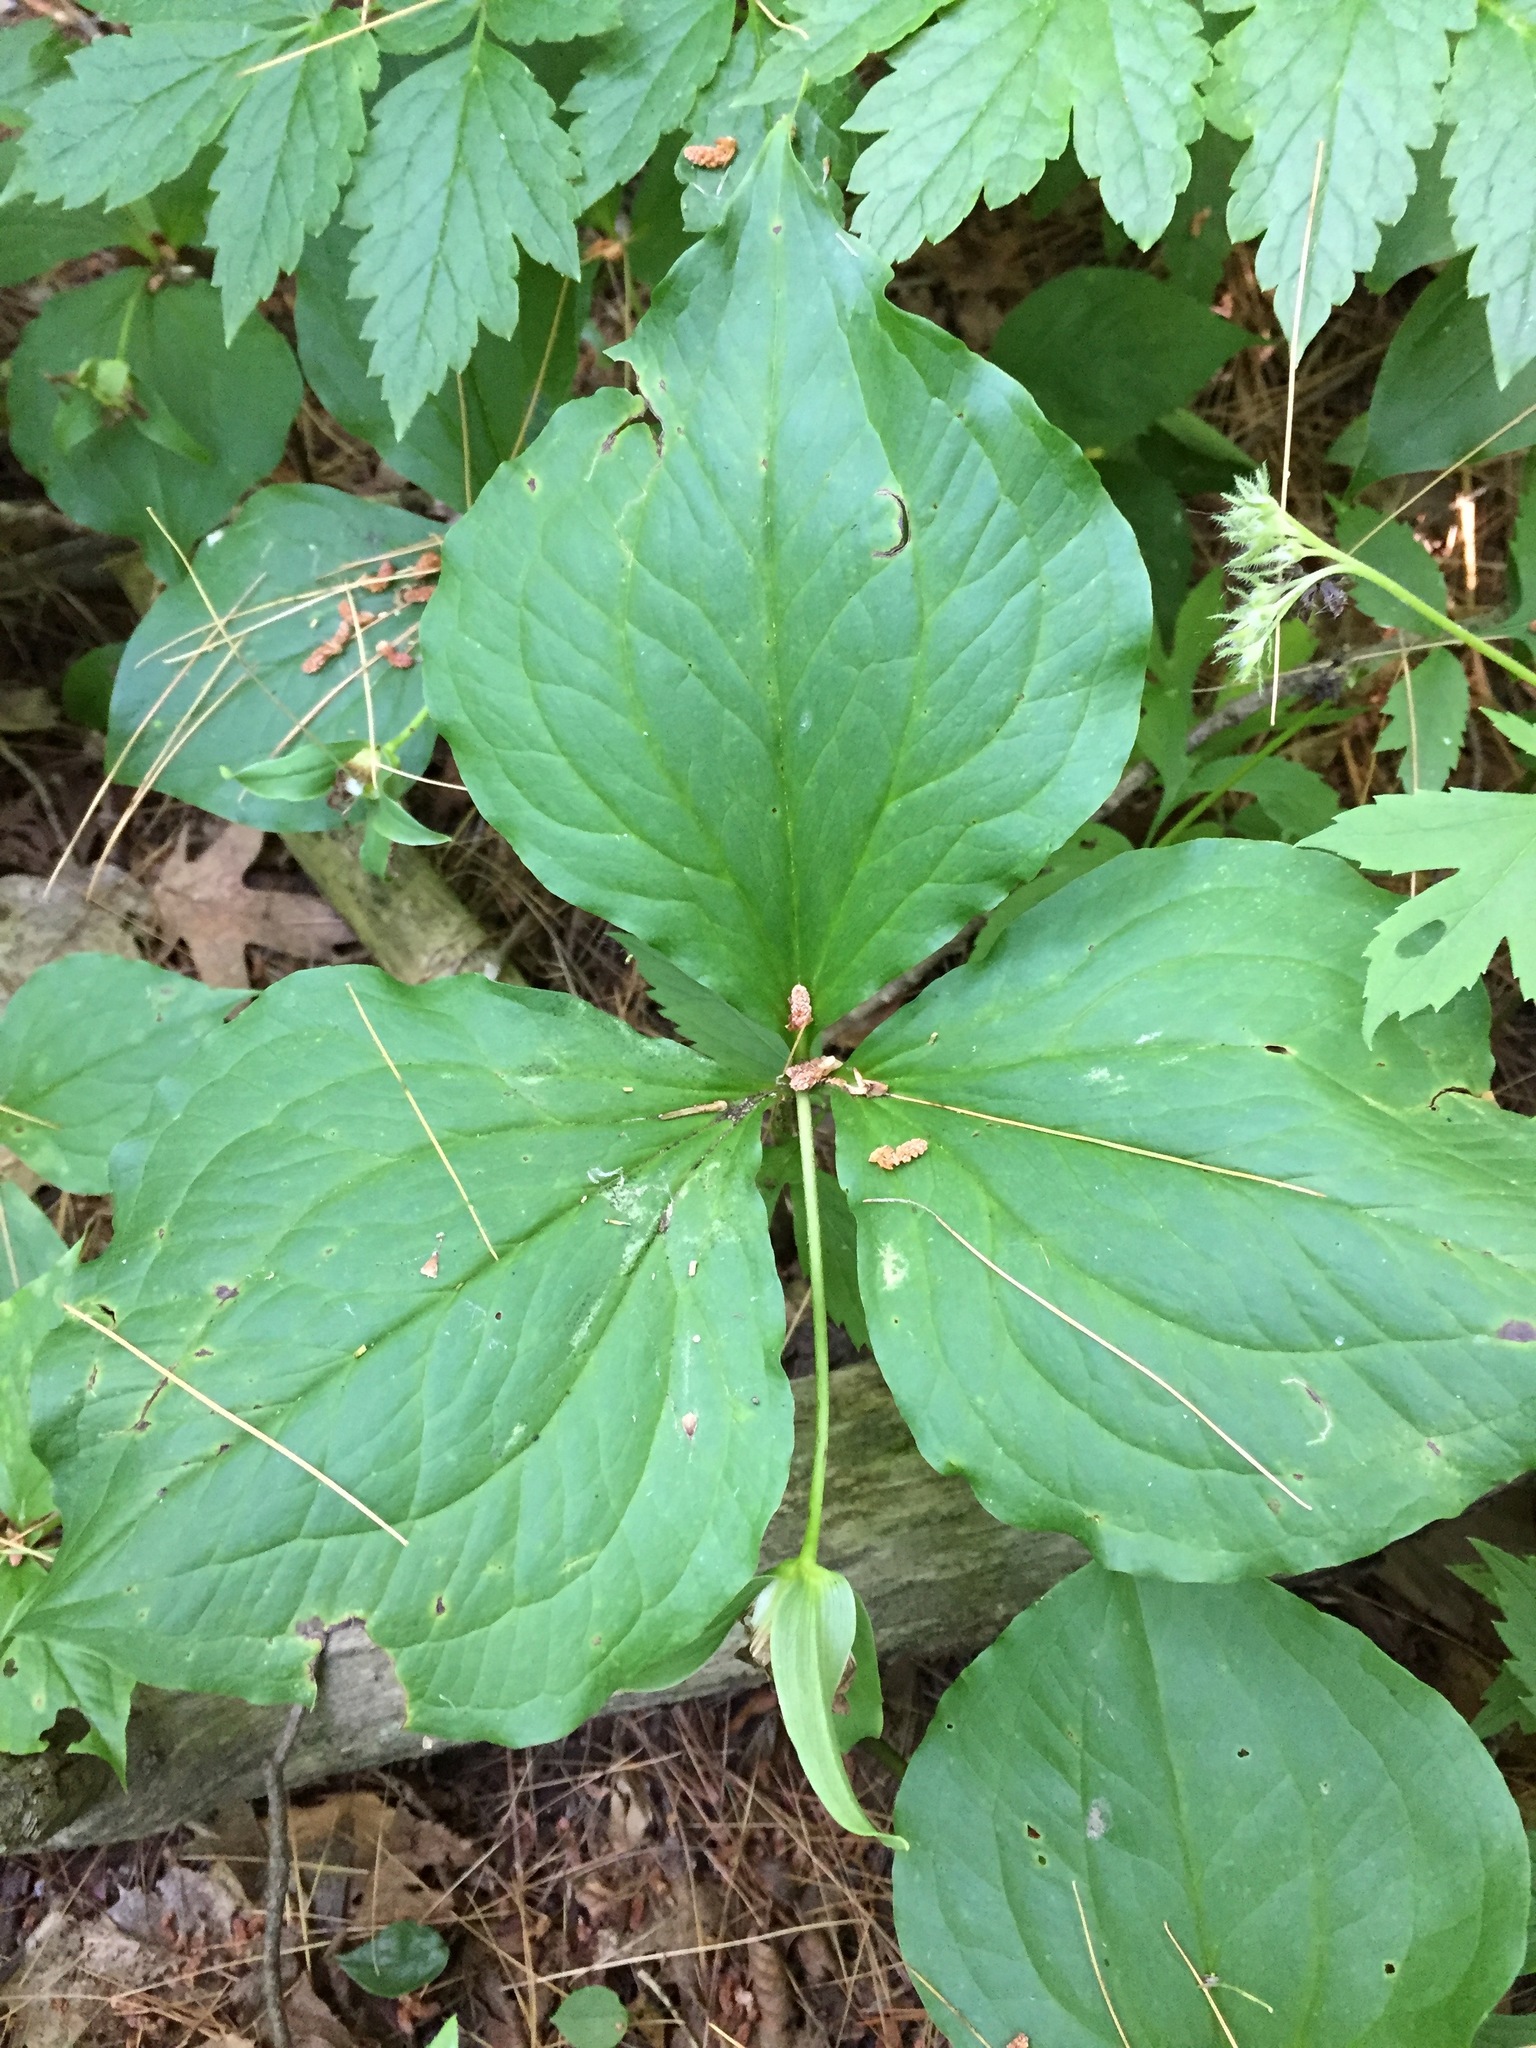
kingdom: Plantae
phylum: Tracheophyta
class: Liliopsida
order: Liliales
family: Melanthiaceae
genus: Trillium
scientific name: Trillium grandiflorum
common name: Great white trillium
